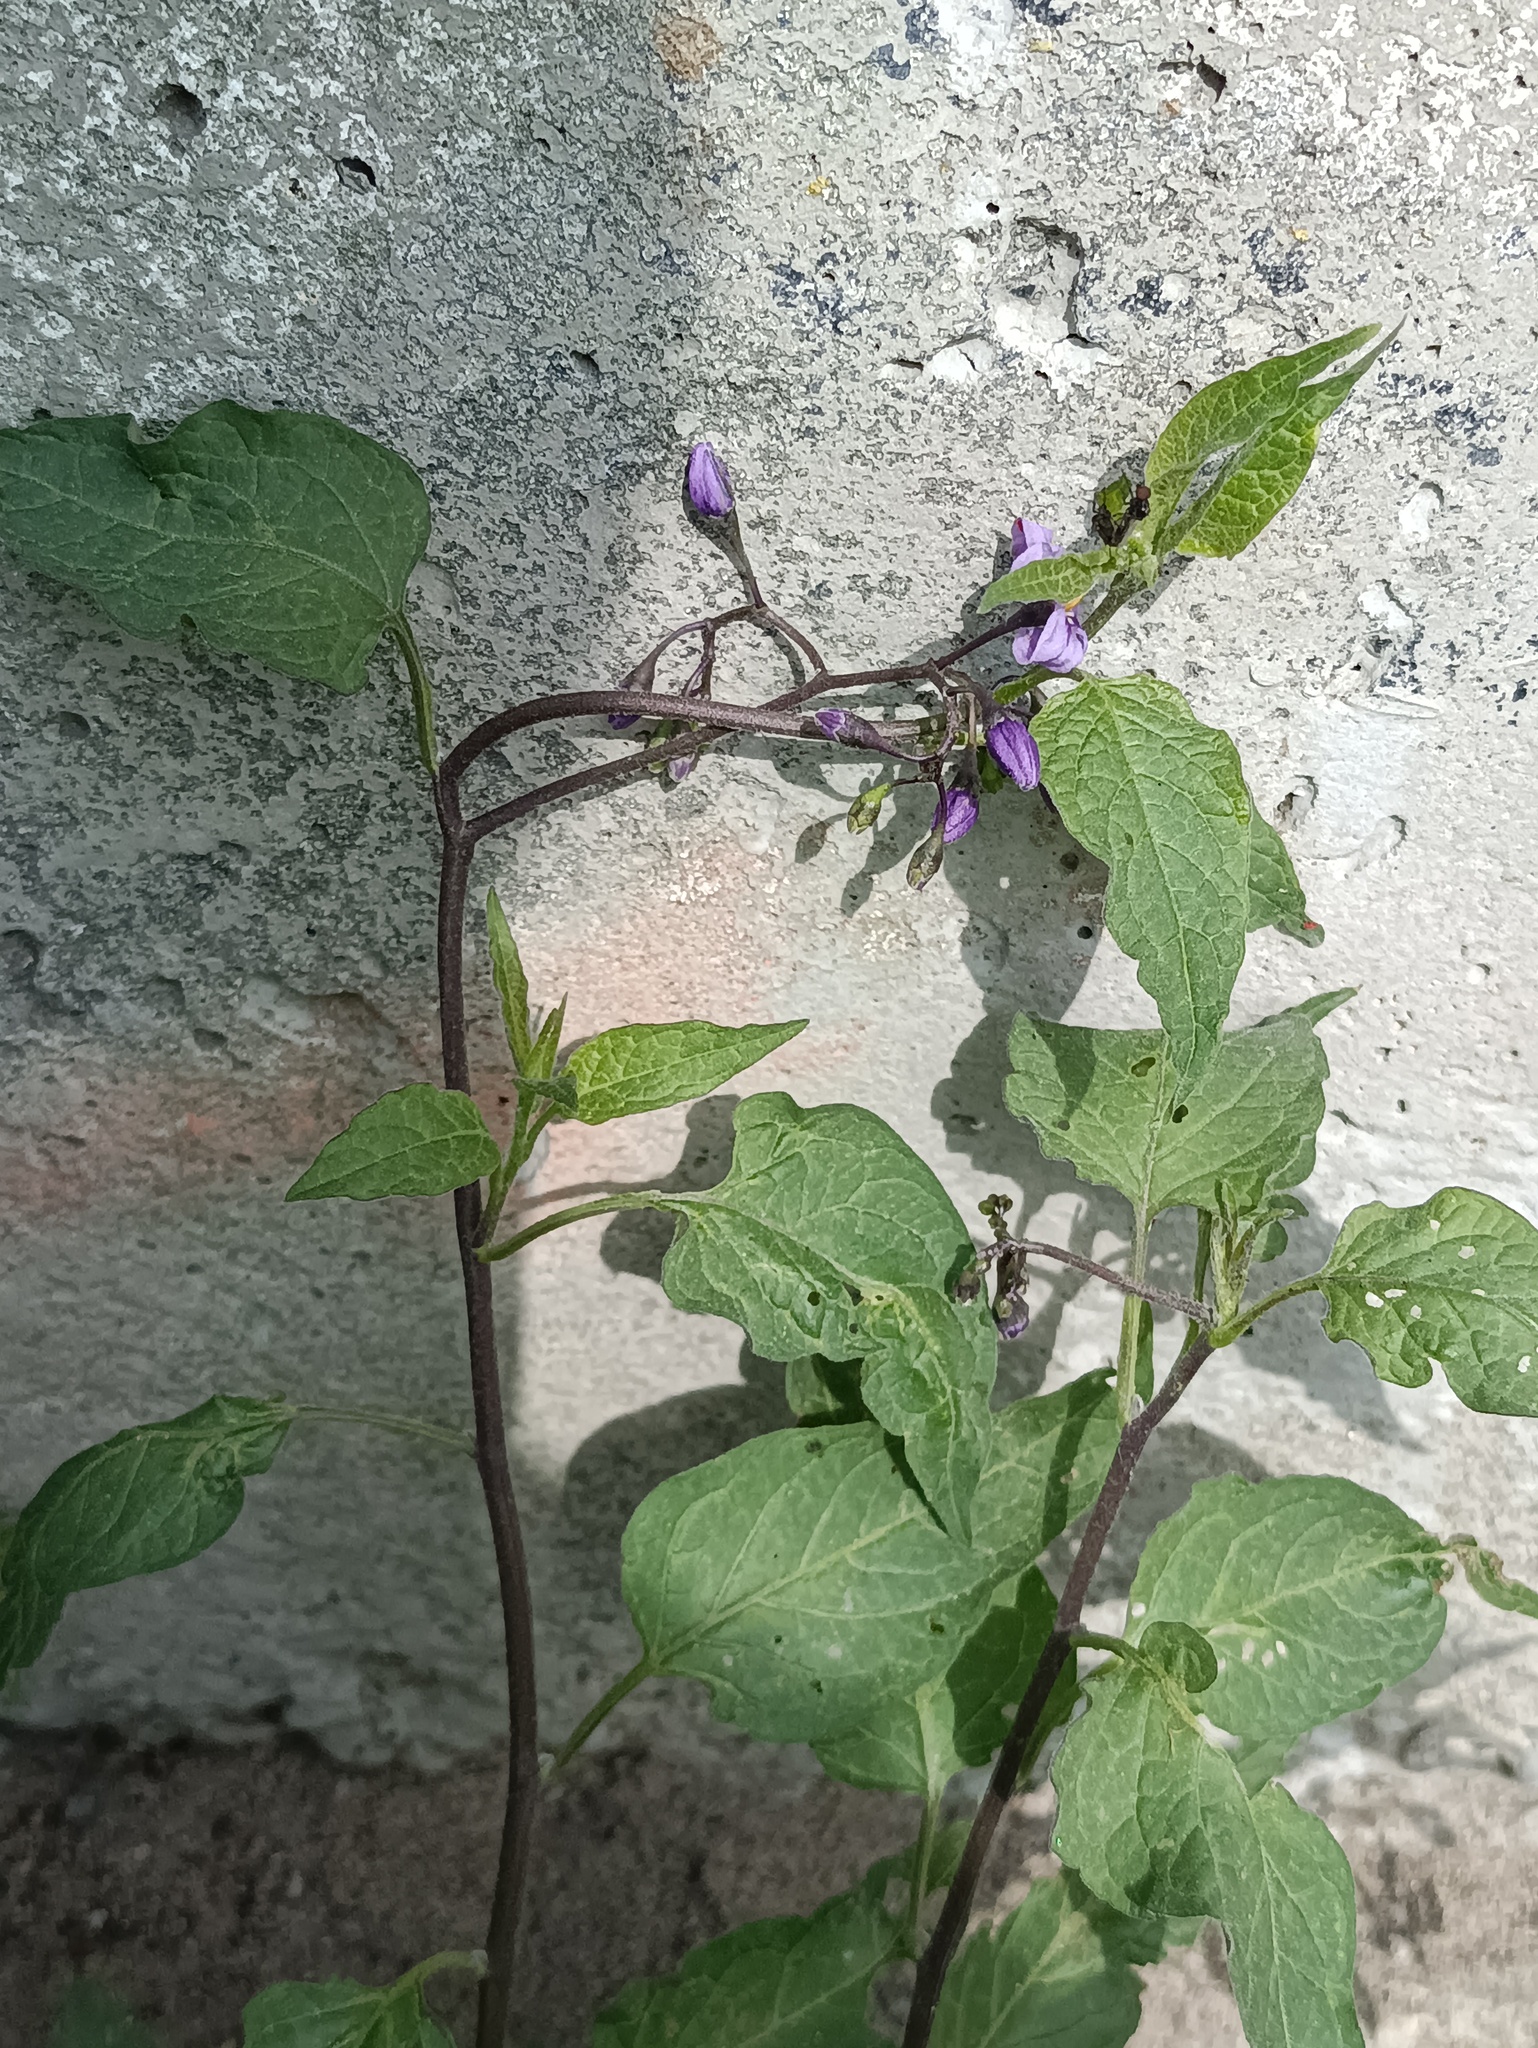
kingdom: Plantae
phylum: Tracheophyta
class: Magnoliopsida
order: Solanales
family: Solanaceae
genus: Solanum
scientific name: Solanum dulcamara
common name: Climbing nightshade
